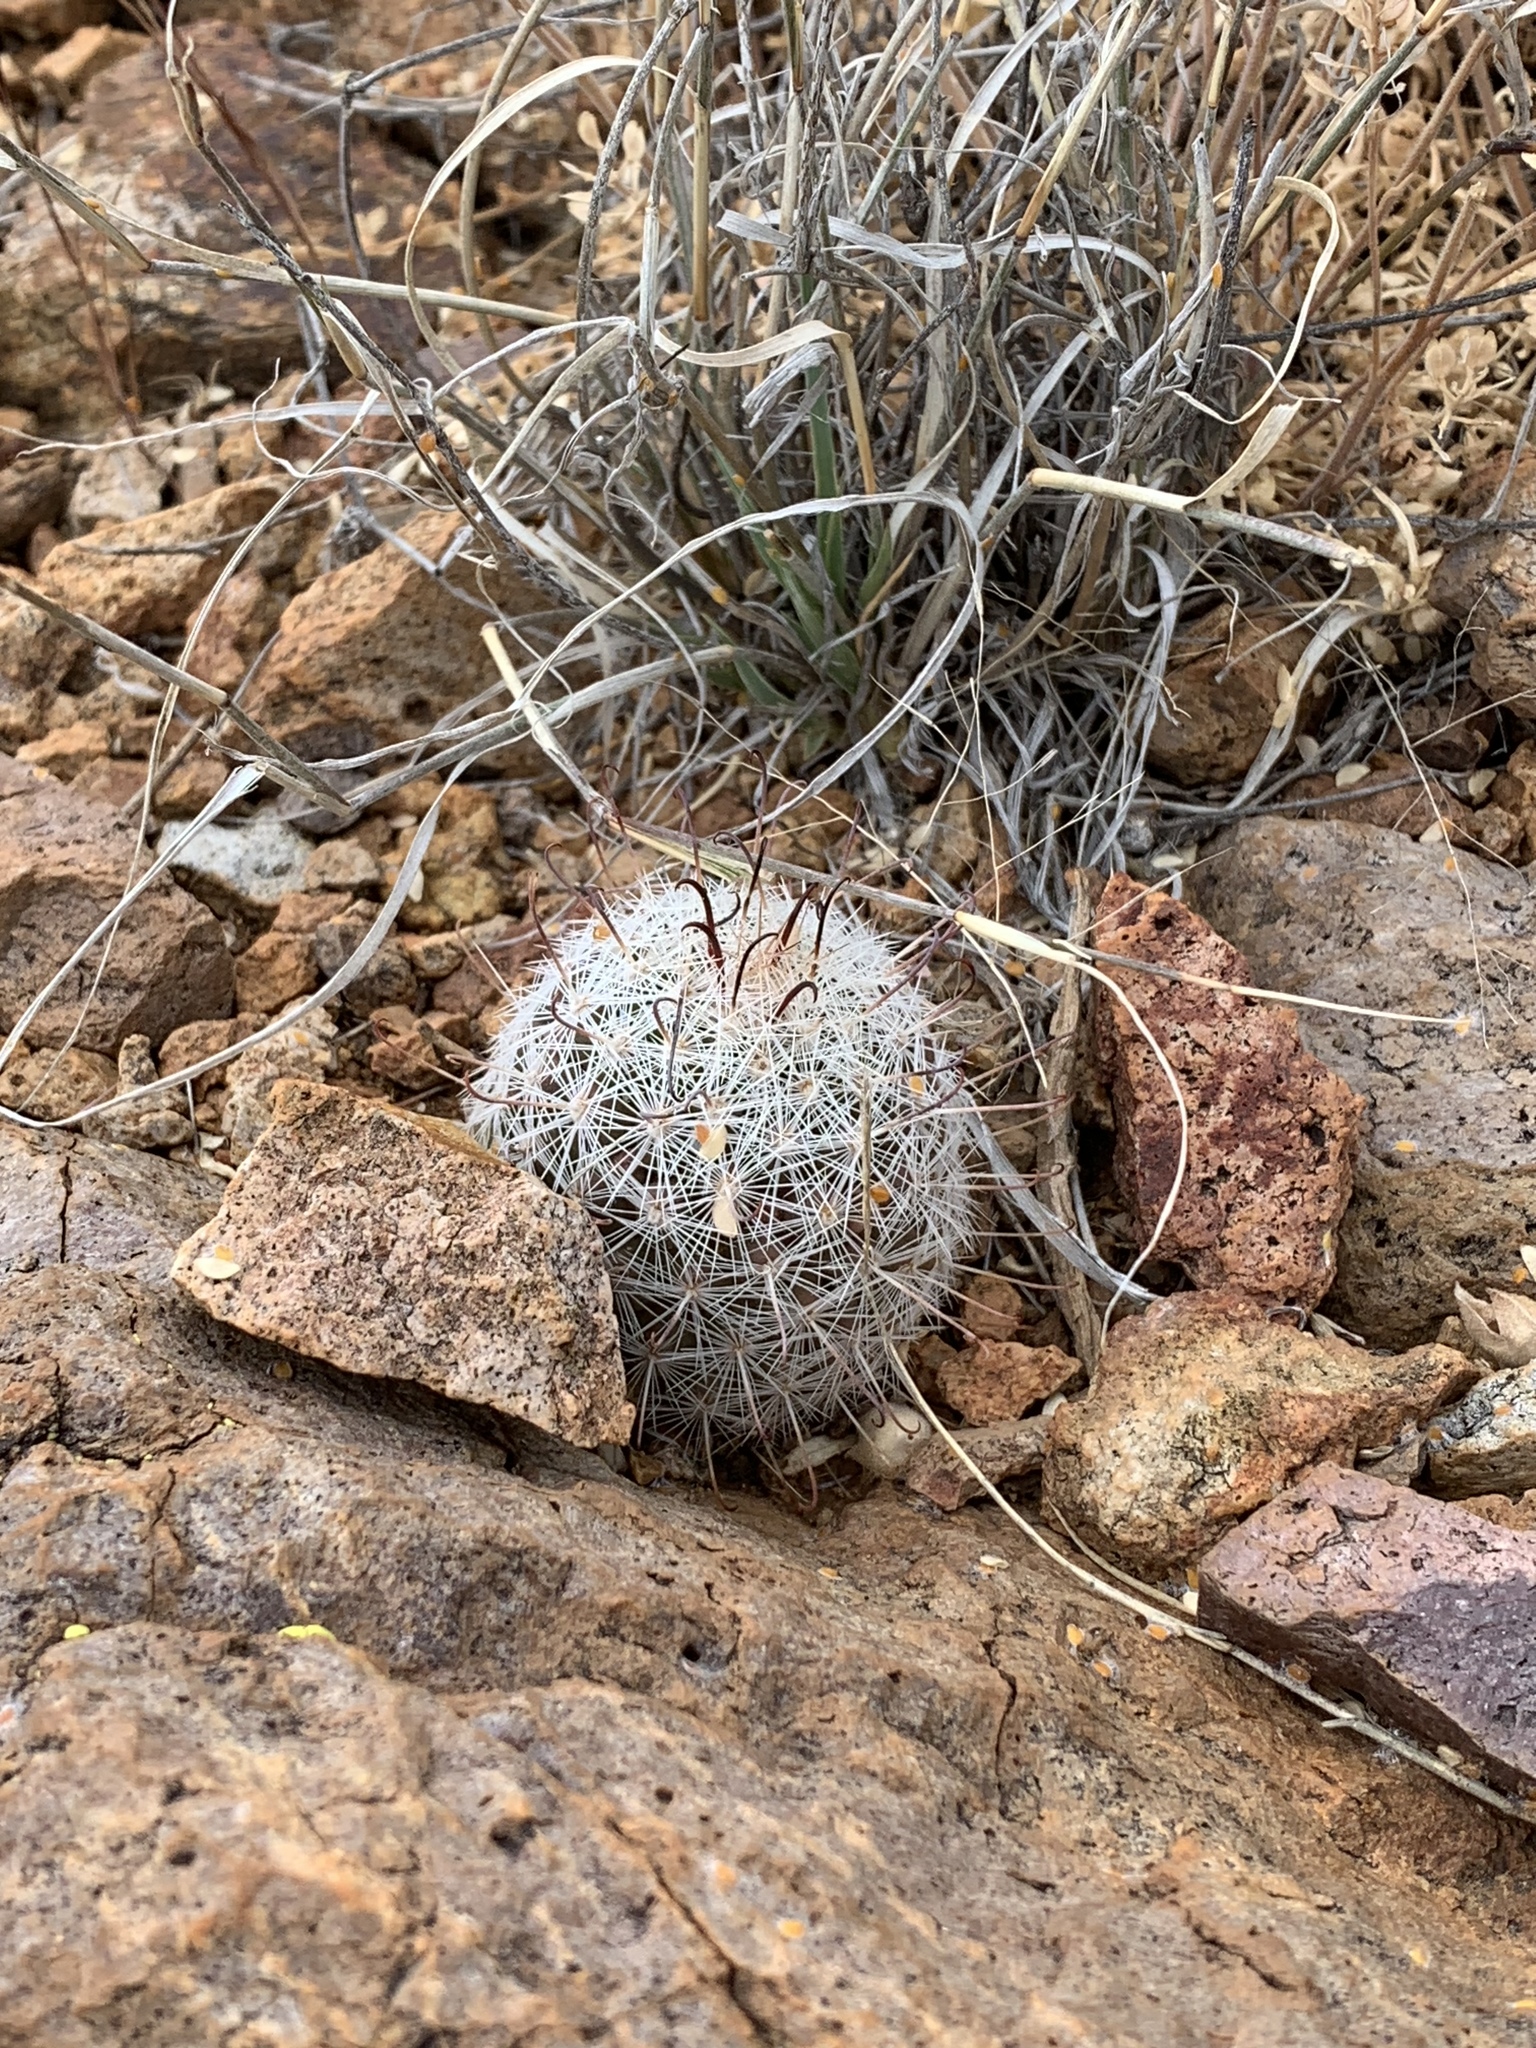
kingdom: Plantae
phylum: Tracheophyta
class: Magnoliopsida
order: Caryophyllales
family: Cactaceae
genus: Cochemiea
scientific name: Cochemiea grahamii
